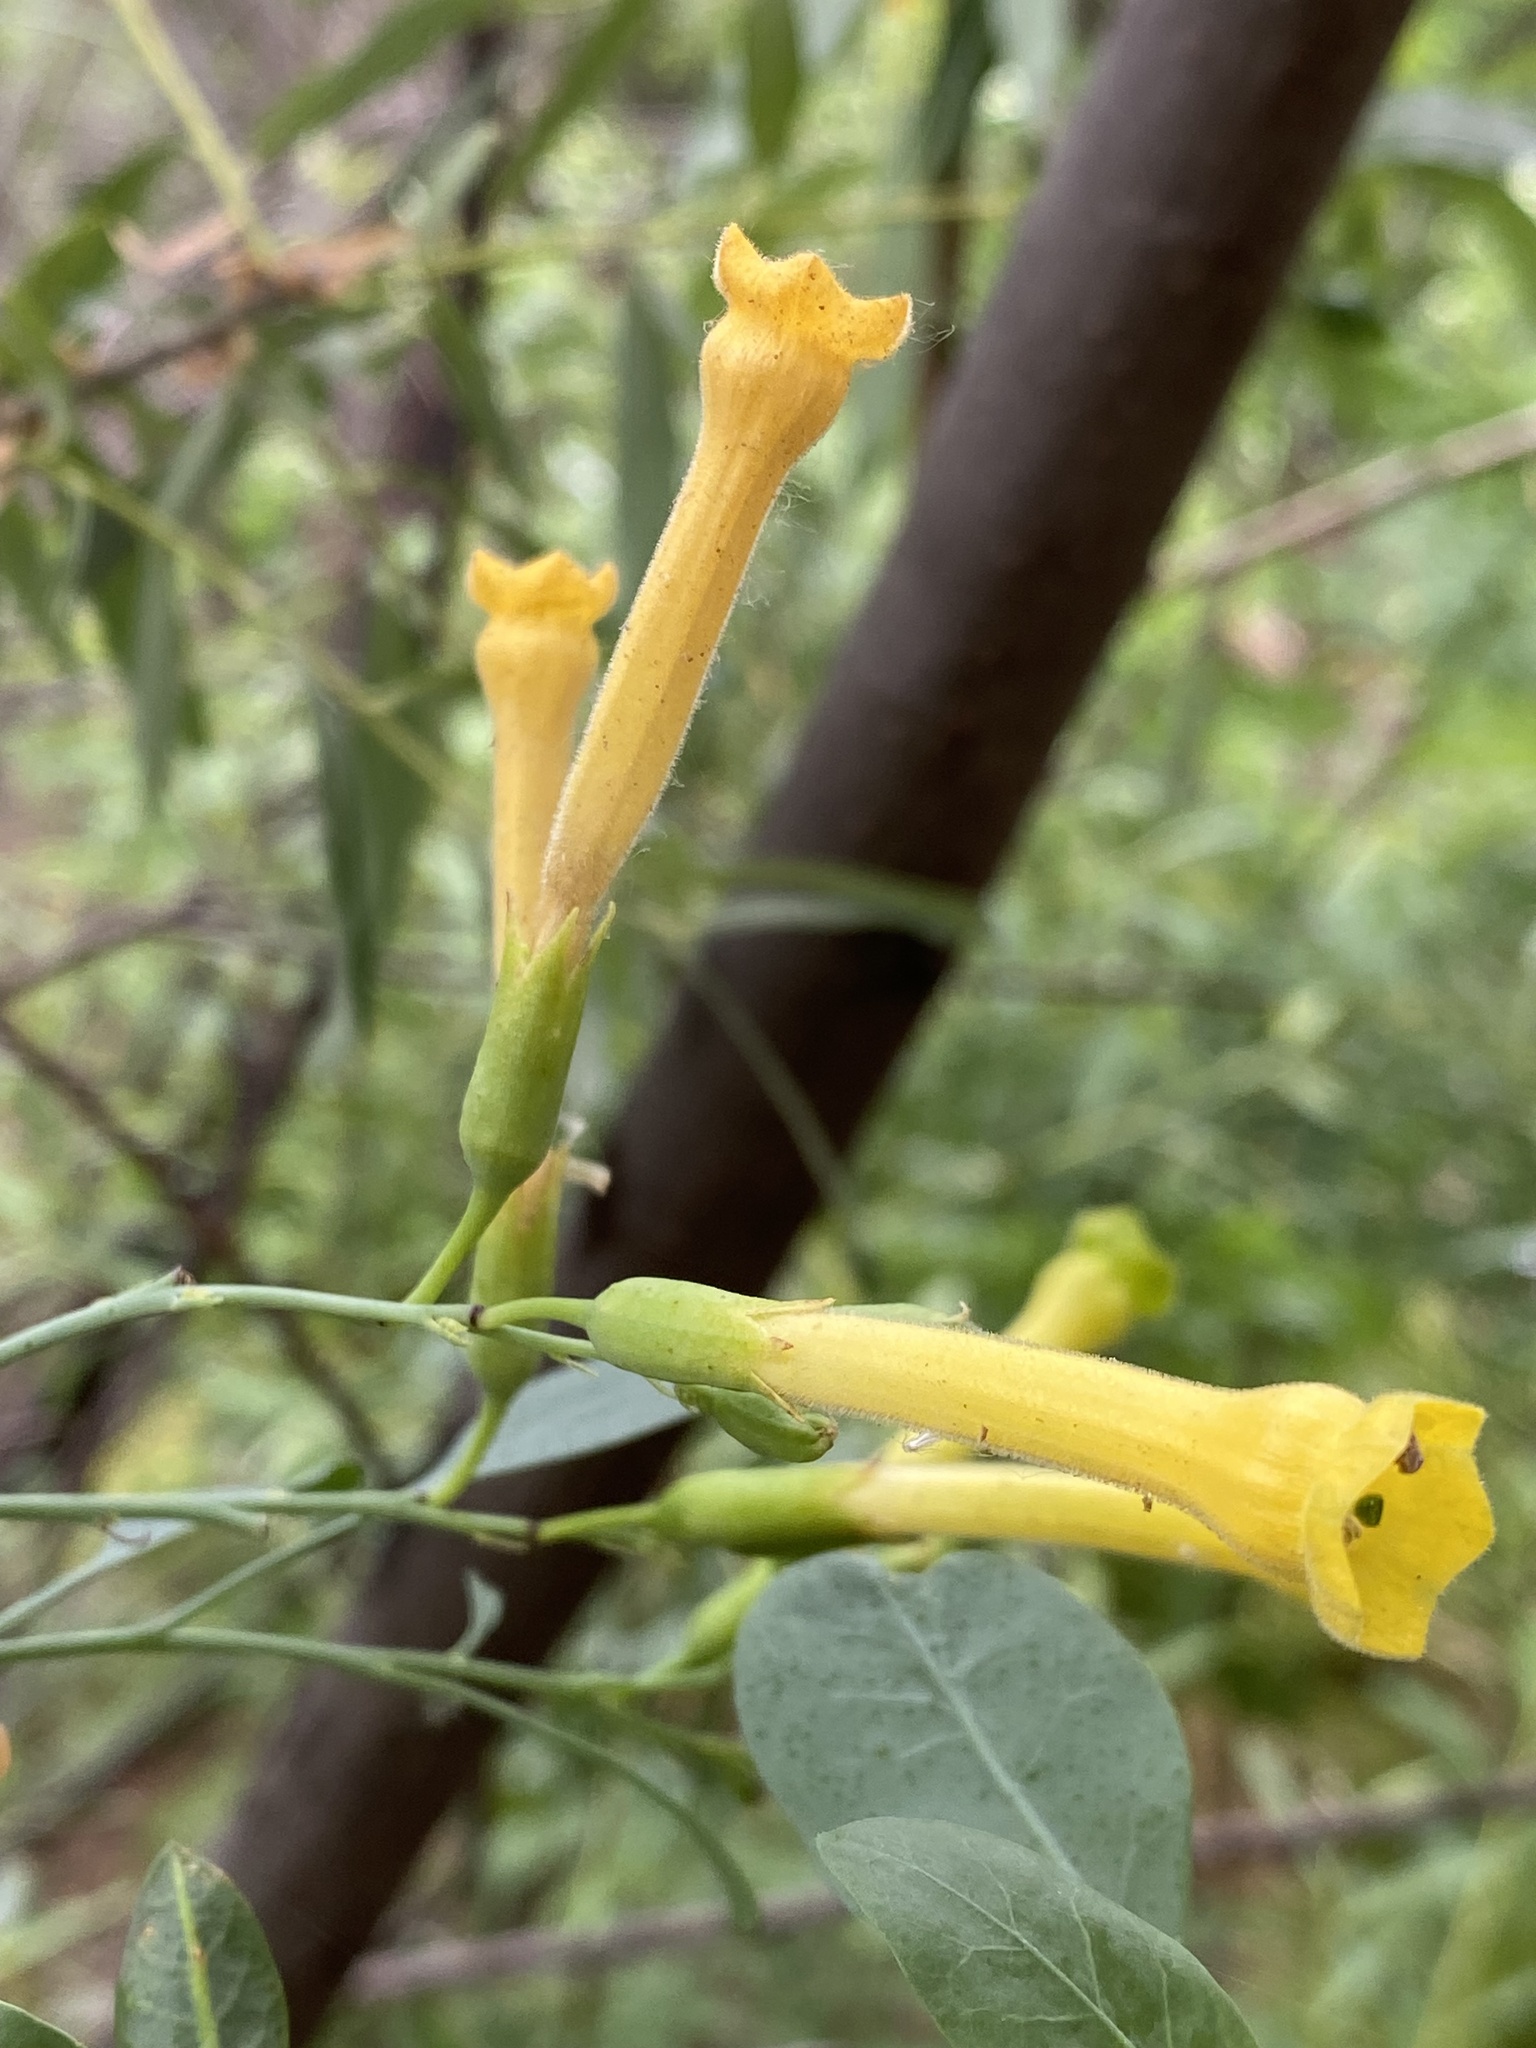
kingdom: Plantae
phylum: Tracheophyta
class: Magnoliopsida
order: Solanales
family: Solanaceae
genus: Nicotiana
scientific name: Nicotiana glauca
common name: Tree tobacco
